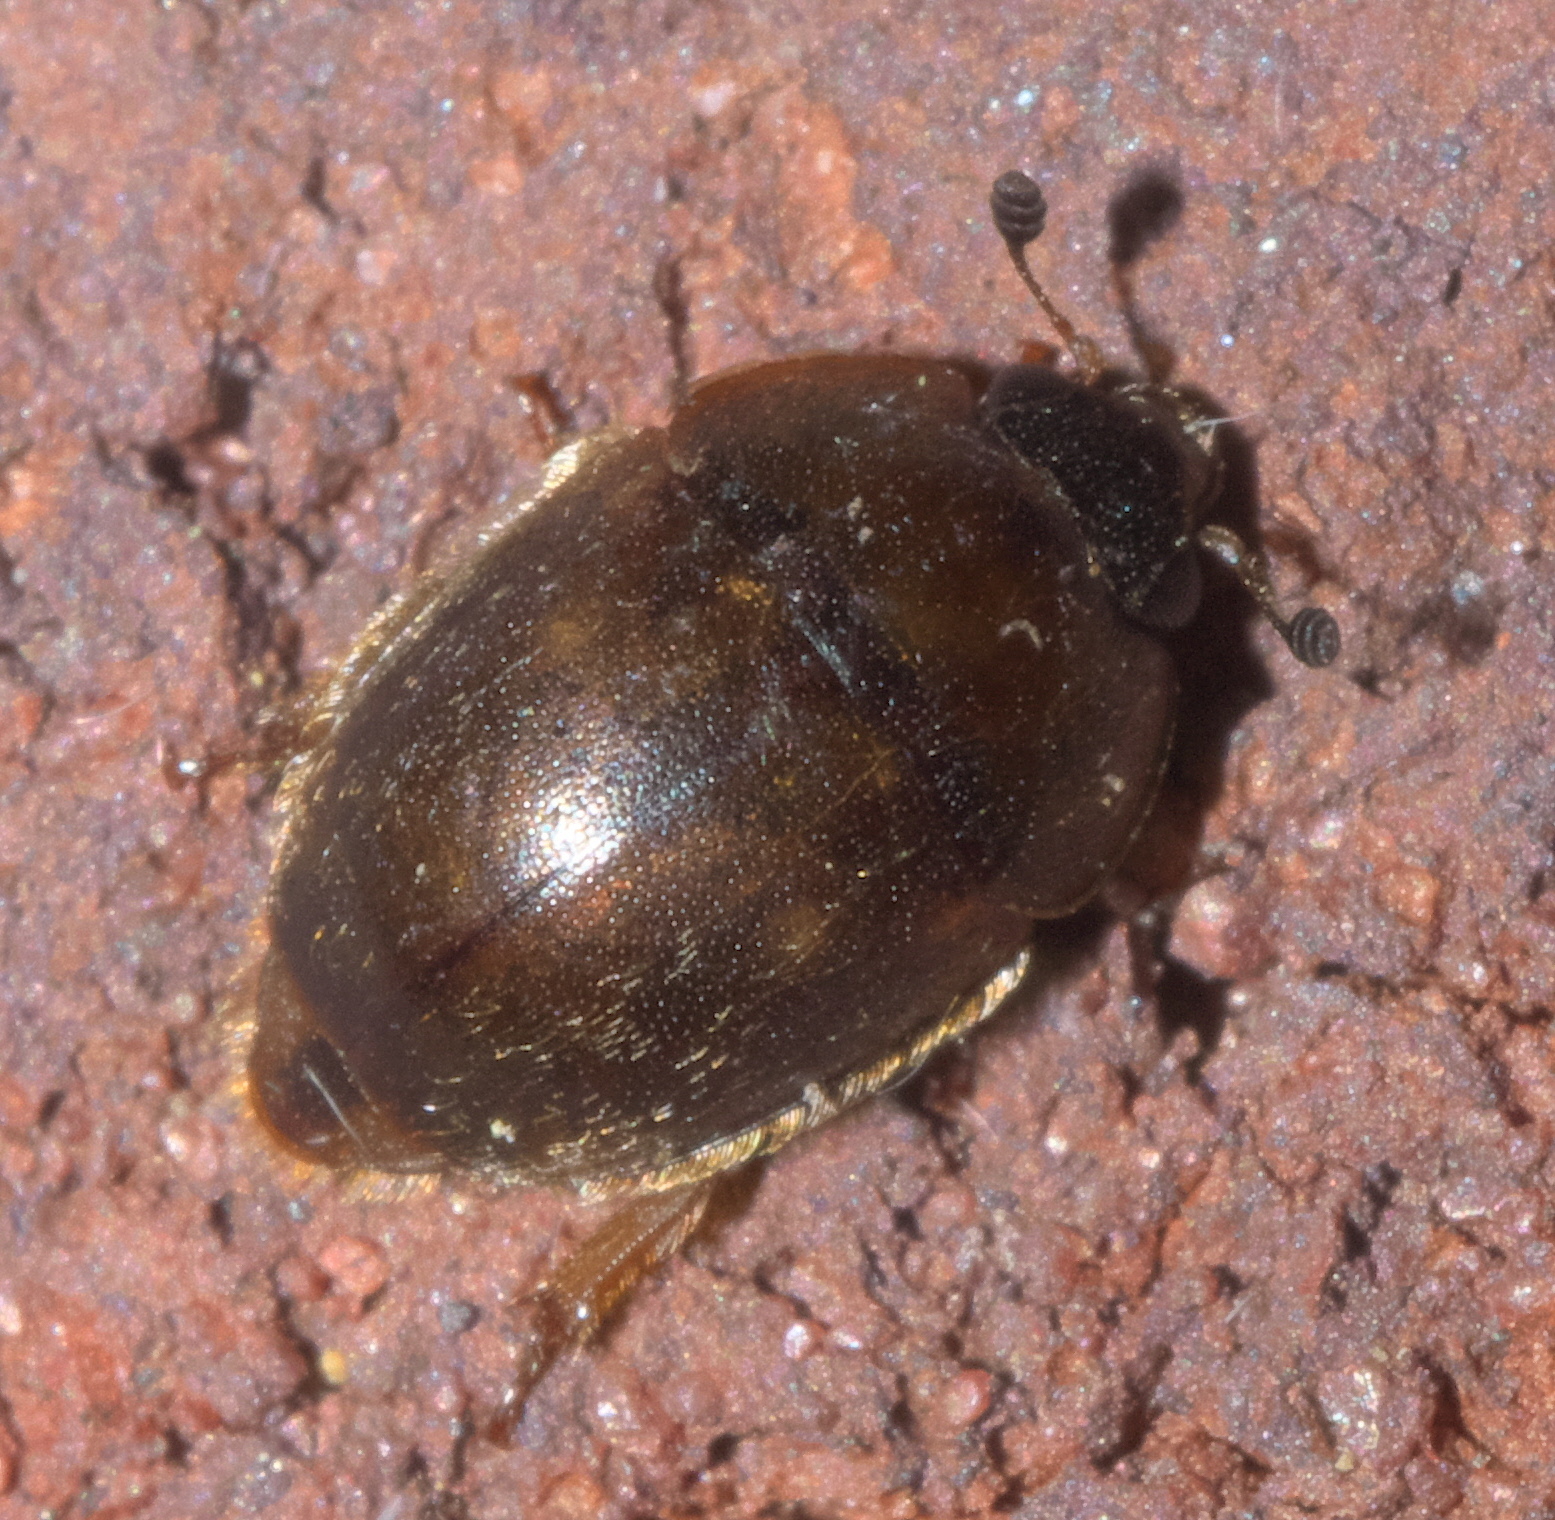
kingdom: Animalia
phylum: Arthropoda
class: Insecta
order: Coleoptera
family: Nitidulidae
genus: Amphicrossus
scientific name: Amphicrossus ciliatus
